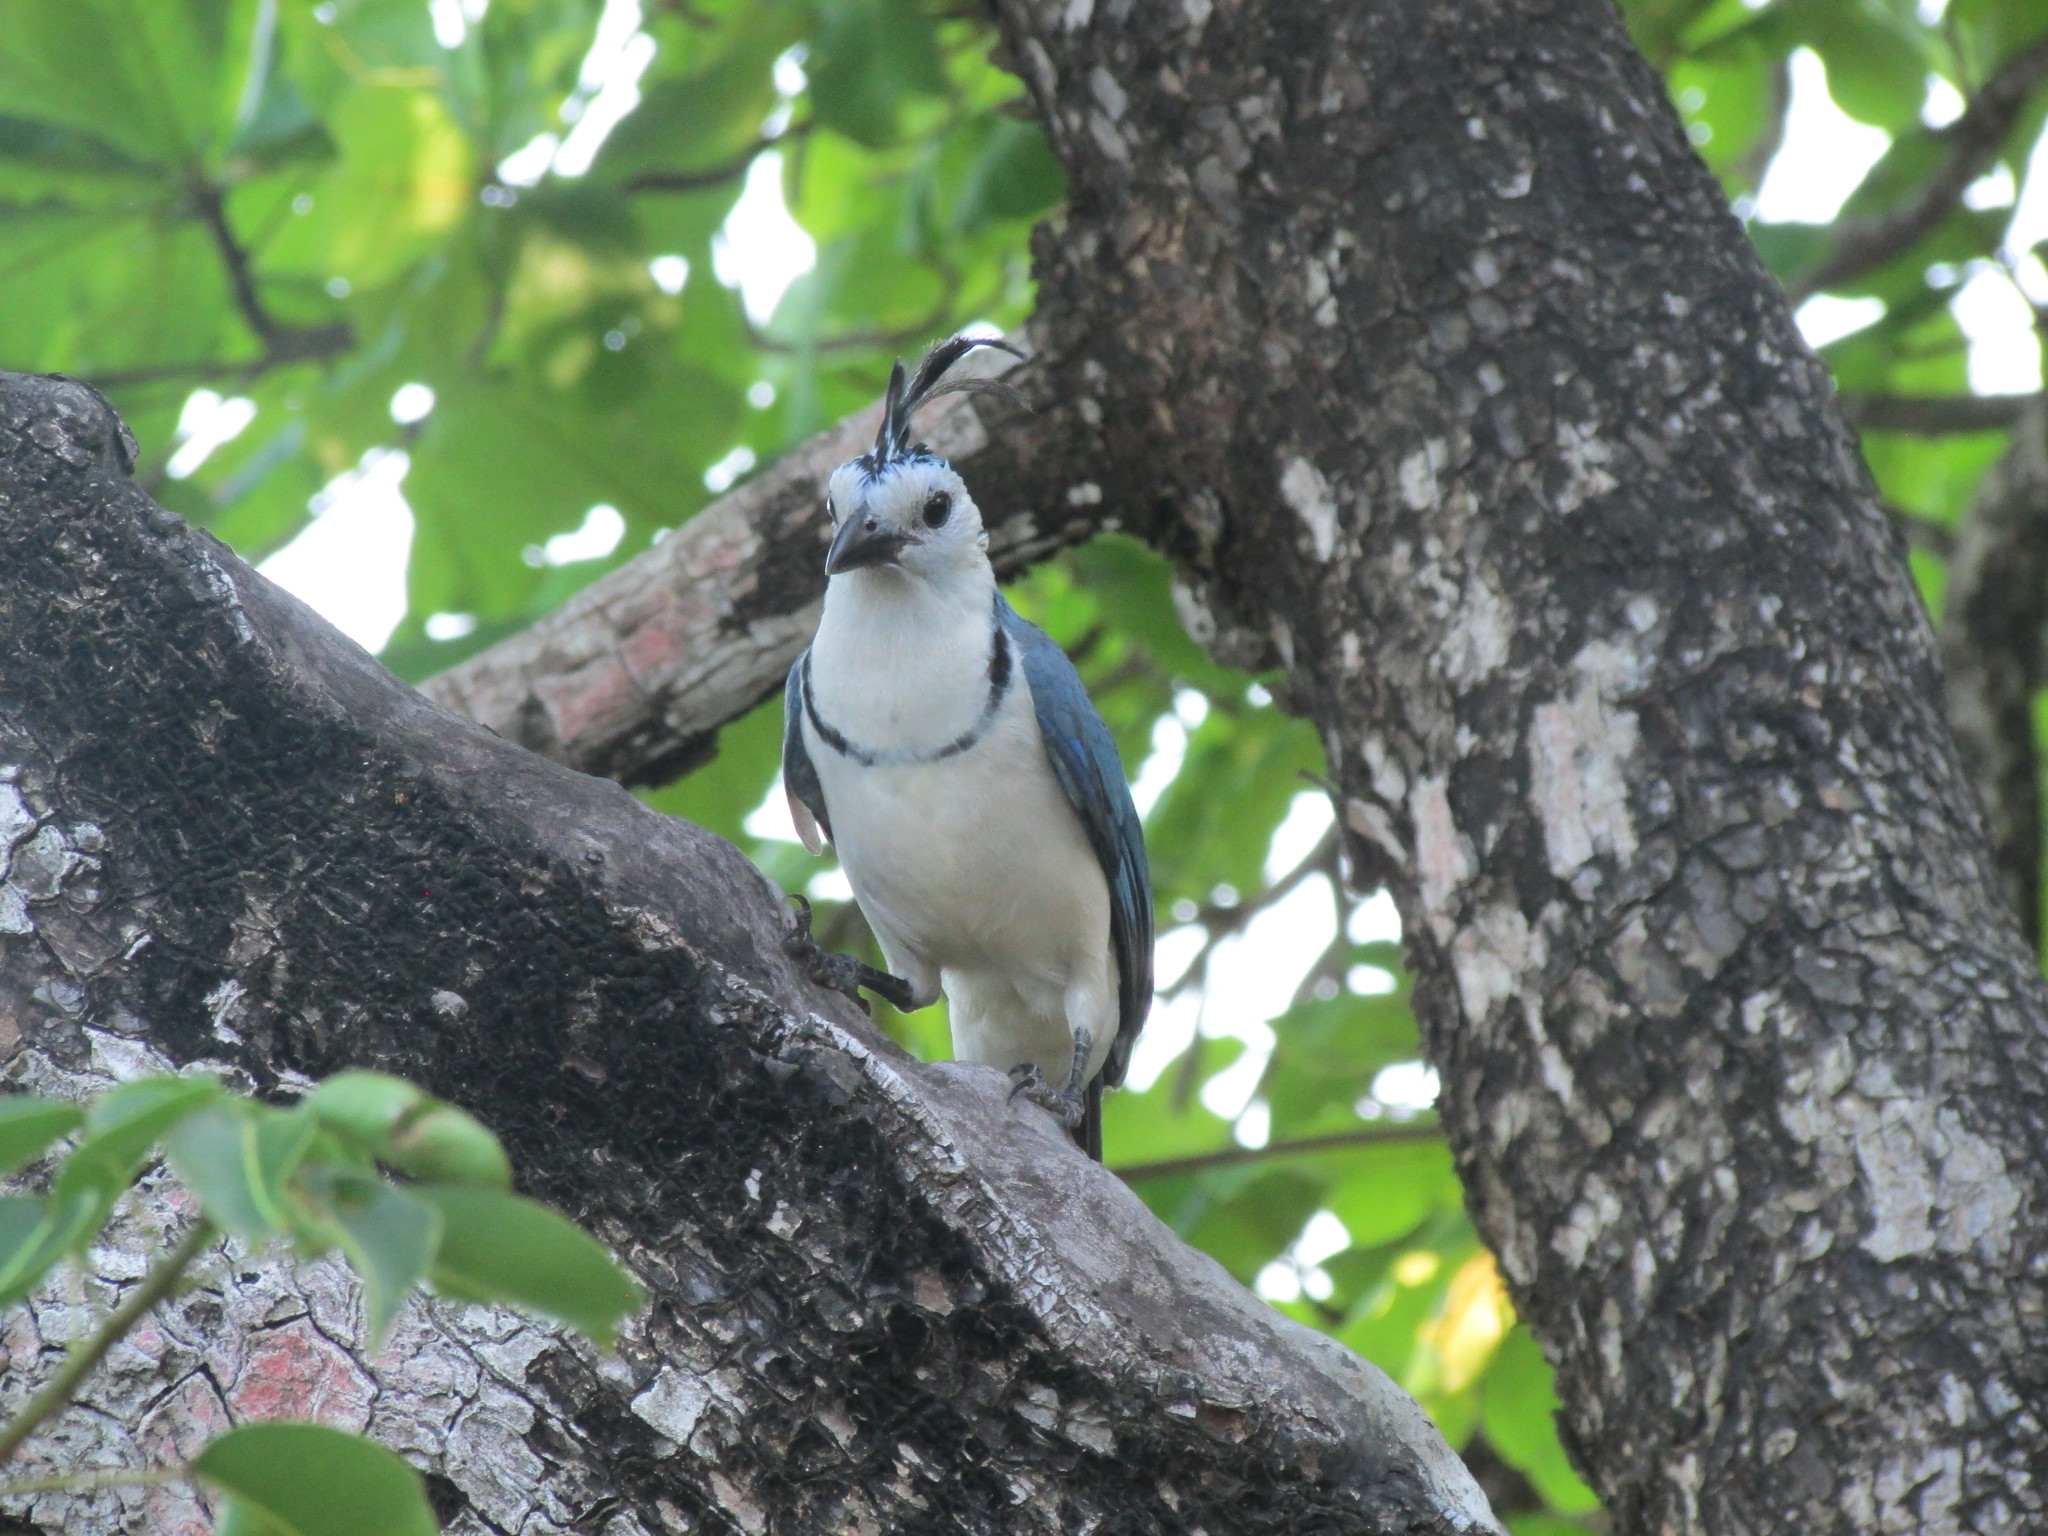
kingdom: Animalia
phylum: Chordata
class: Aves
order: Passeriformes
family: Corvidae
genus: Calocitta
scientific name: Calocitta formosa
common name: White-throated magpie-jay
